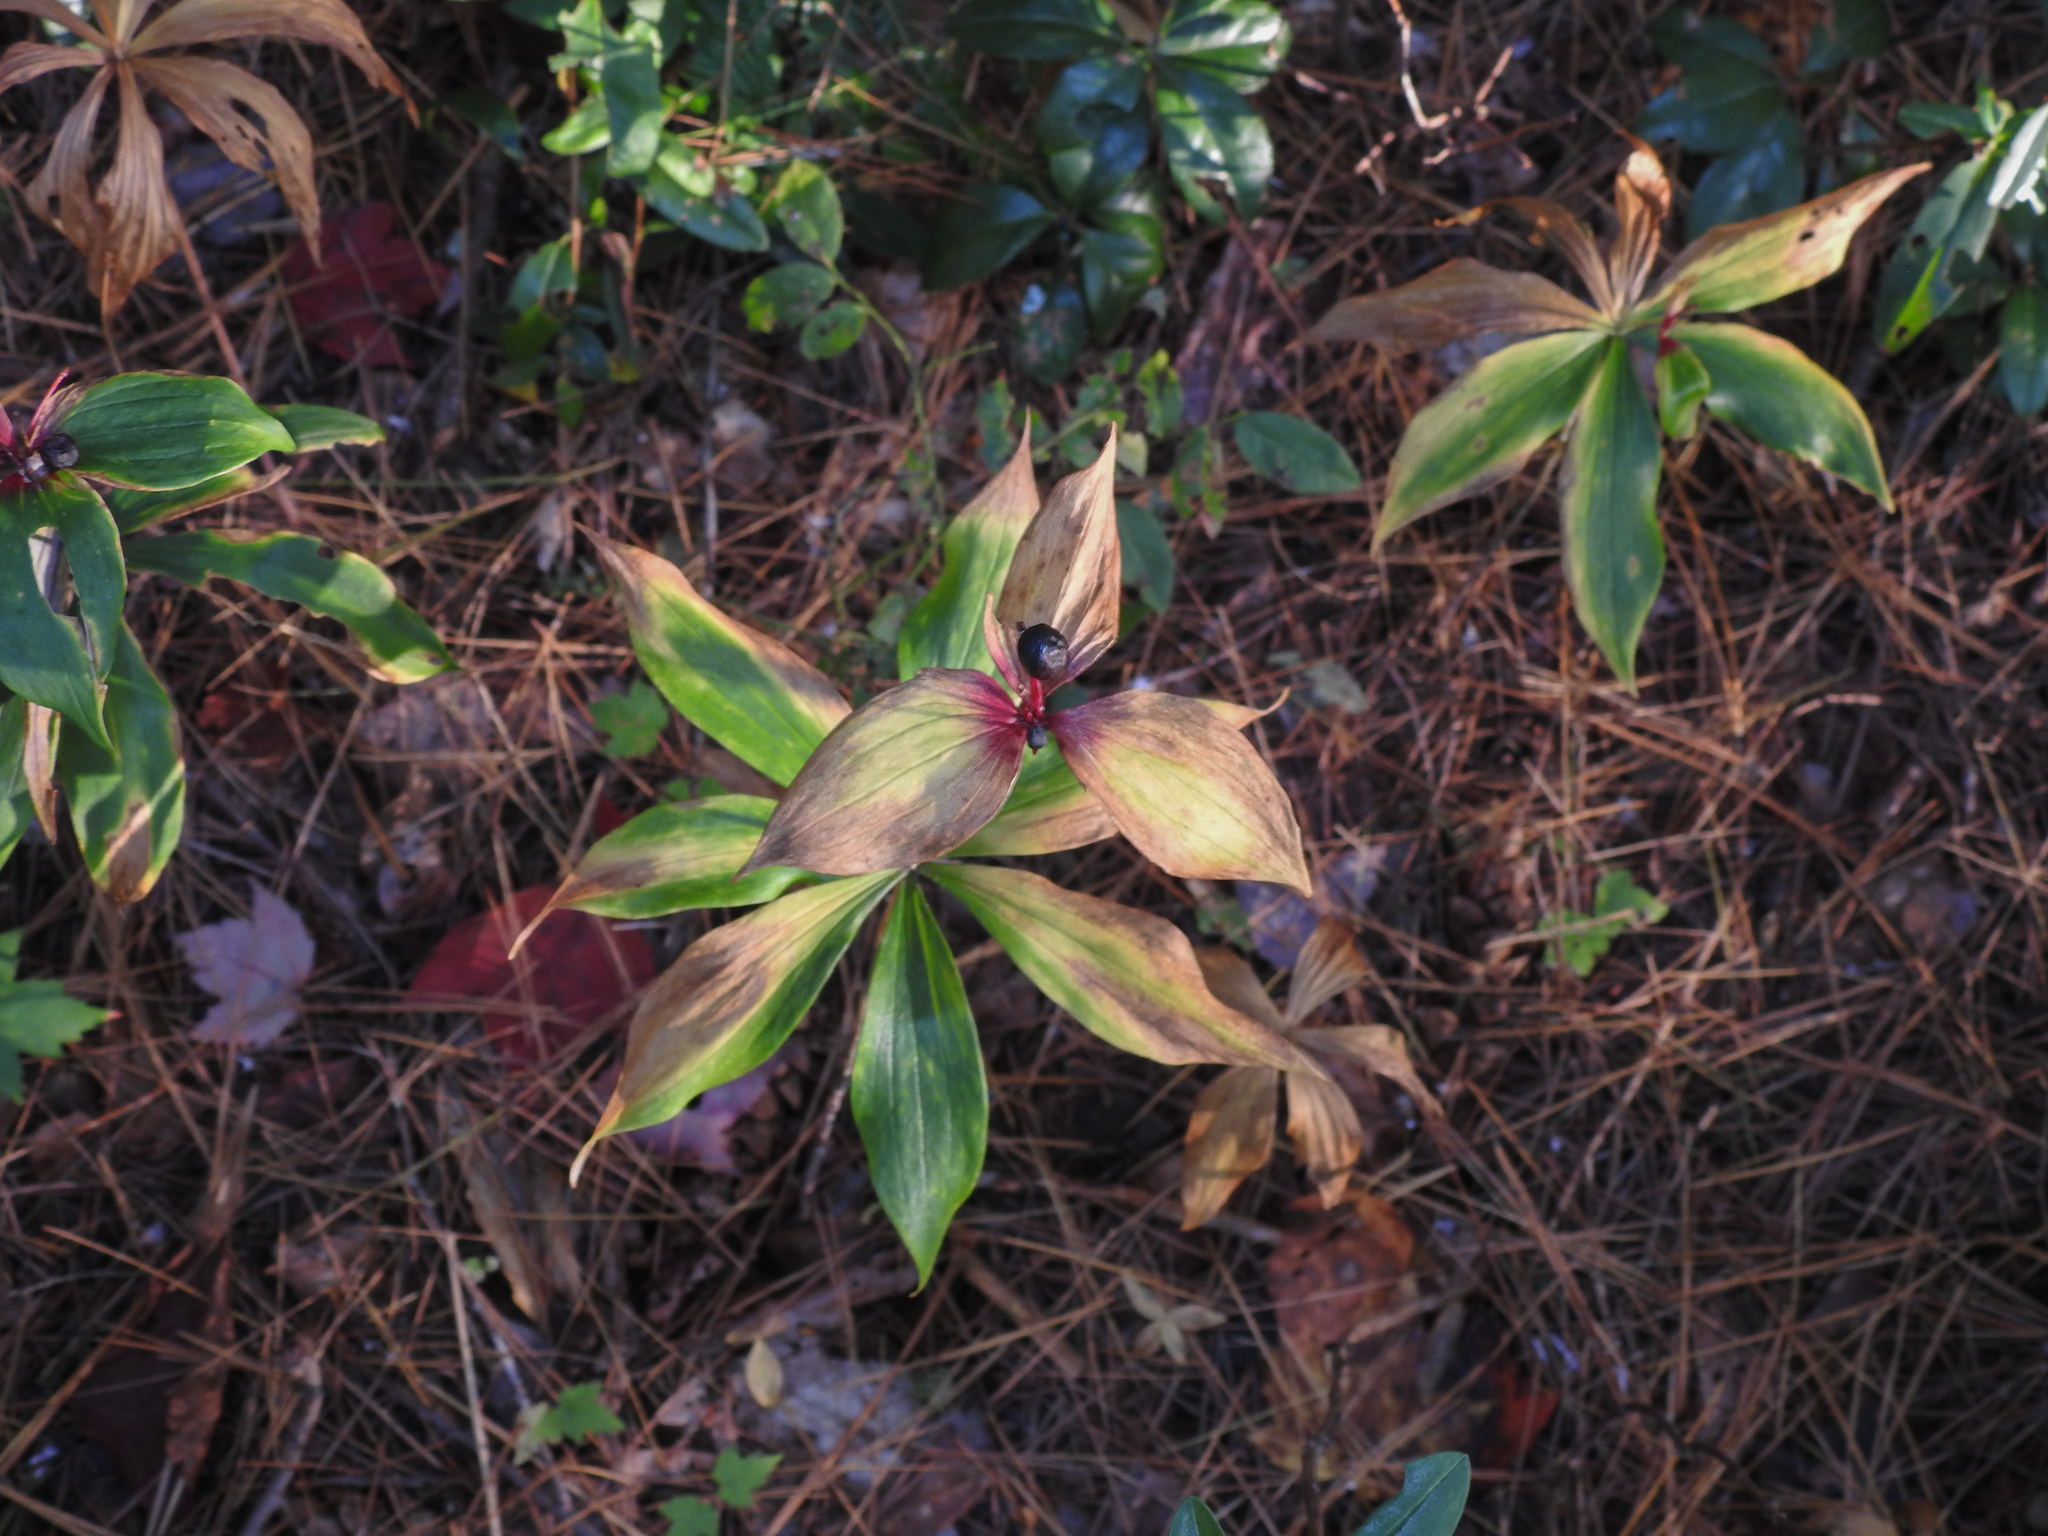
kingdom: Plantae
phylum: Tracheophyta
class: Liliopsida
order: Liliales
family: Liliaceae
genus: Medeola
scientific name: Medeola virginiana
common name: Indian cucumber-root
